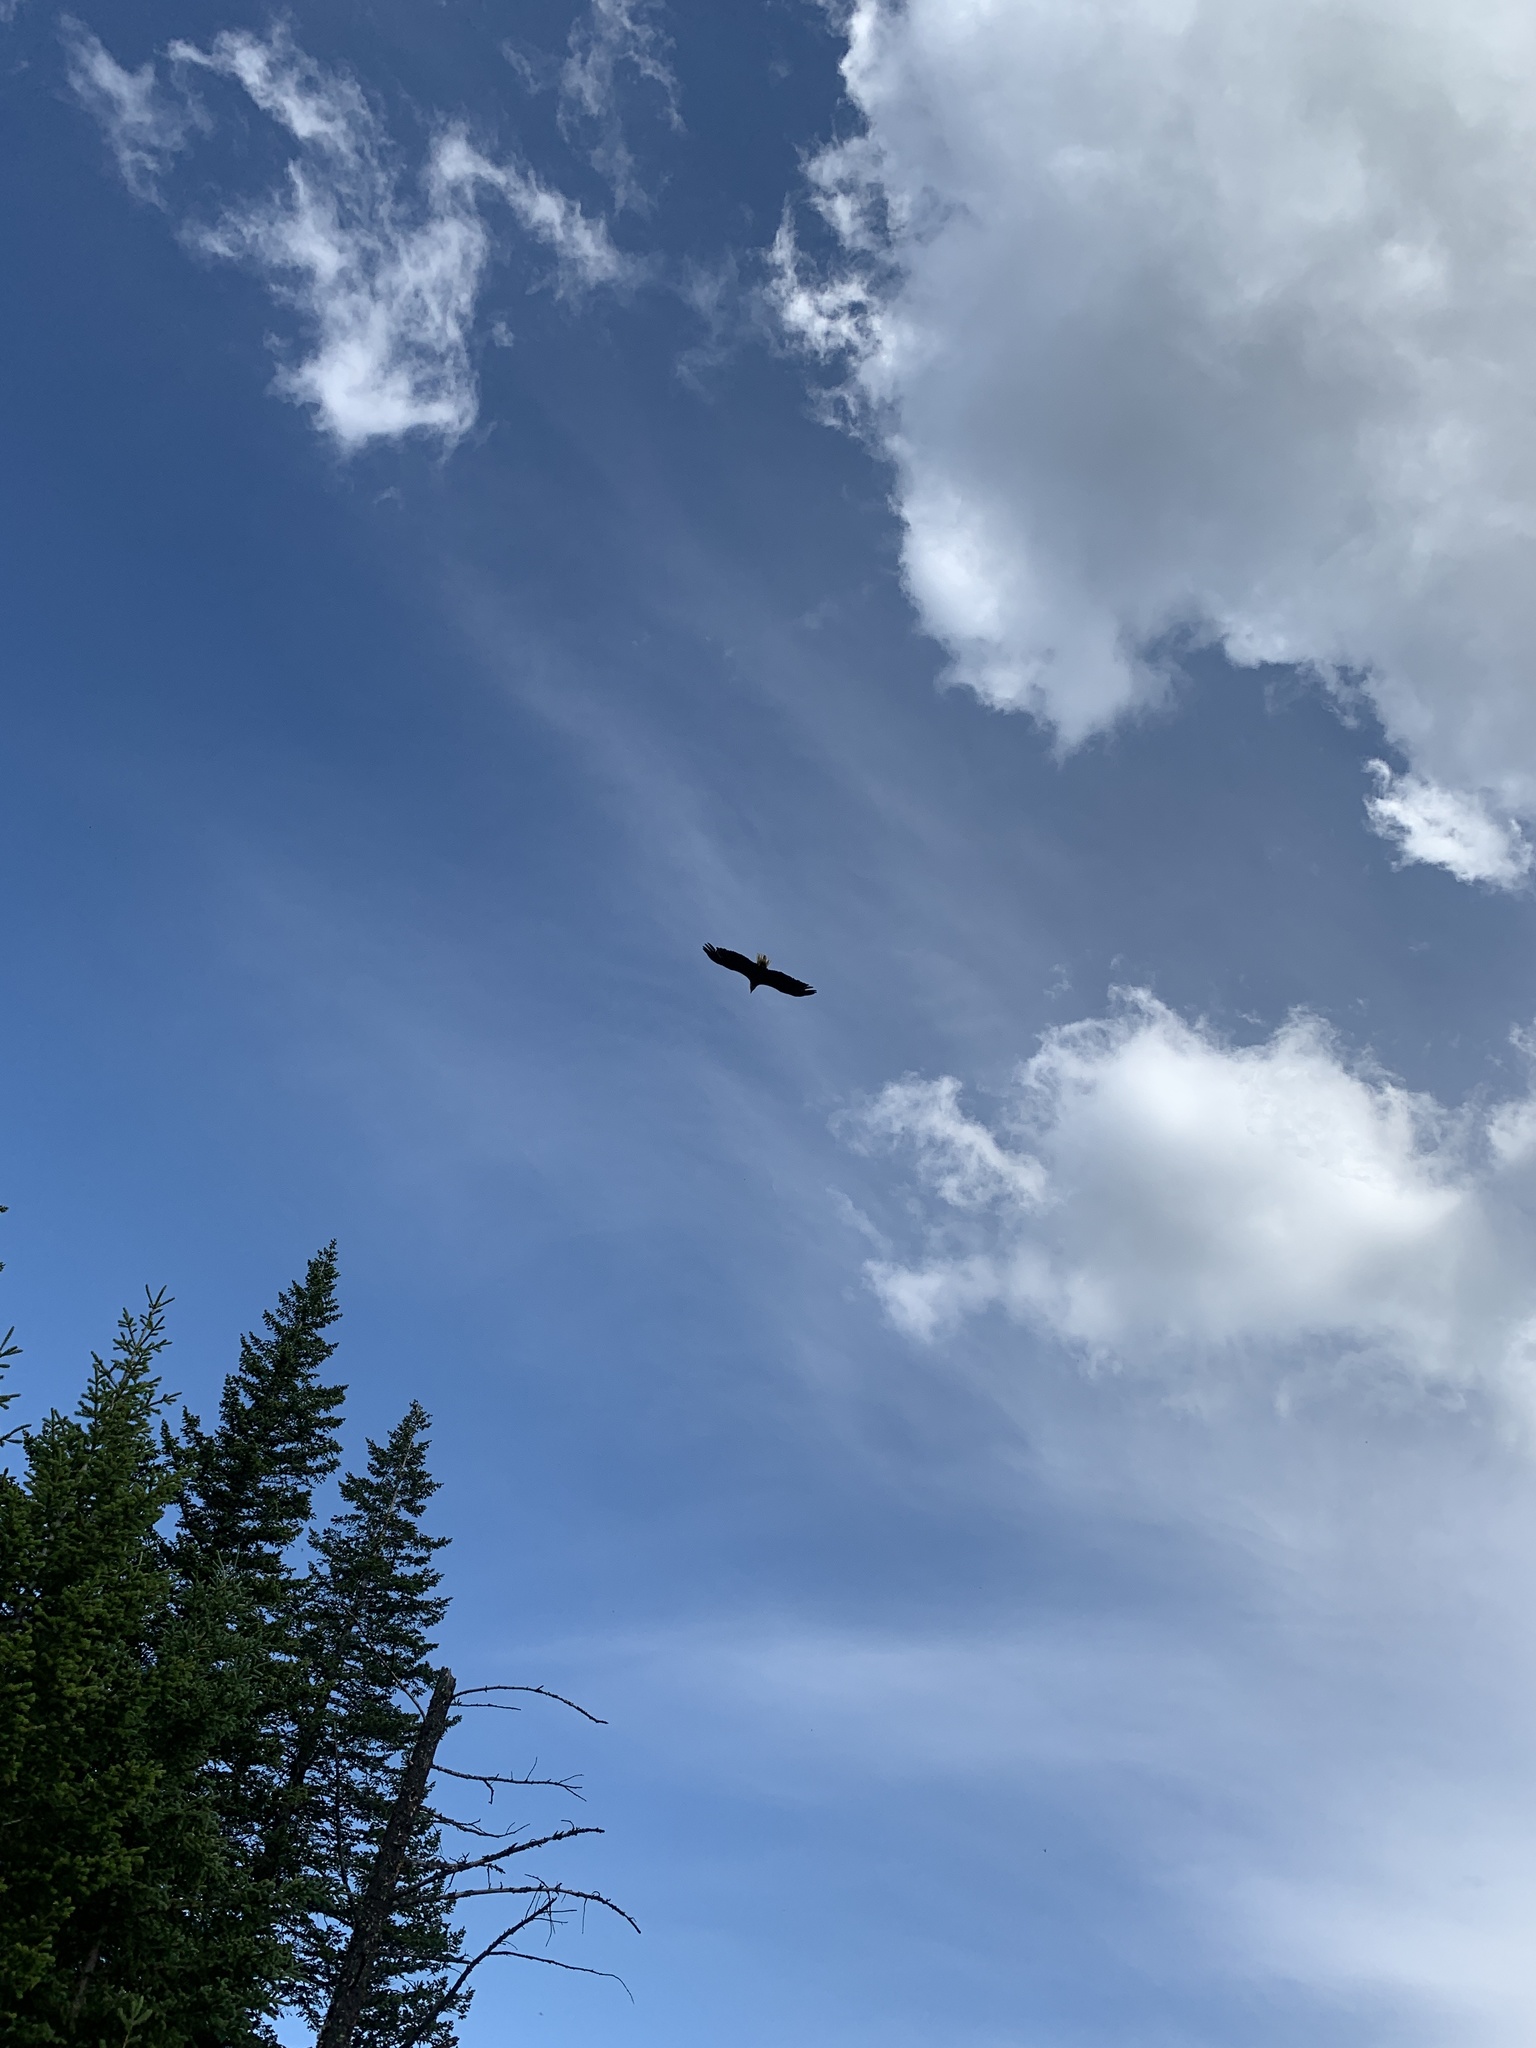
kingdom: Animalia
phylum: Chordata
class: Aves
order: Accipitriformes
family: Accipitridae
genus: Haliaeetus
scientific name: Haliaeetus leucocephalus
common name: Bald eagle
